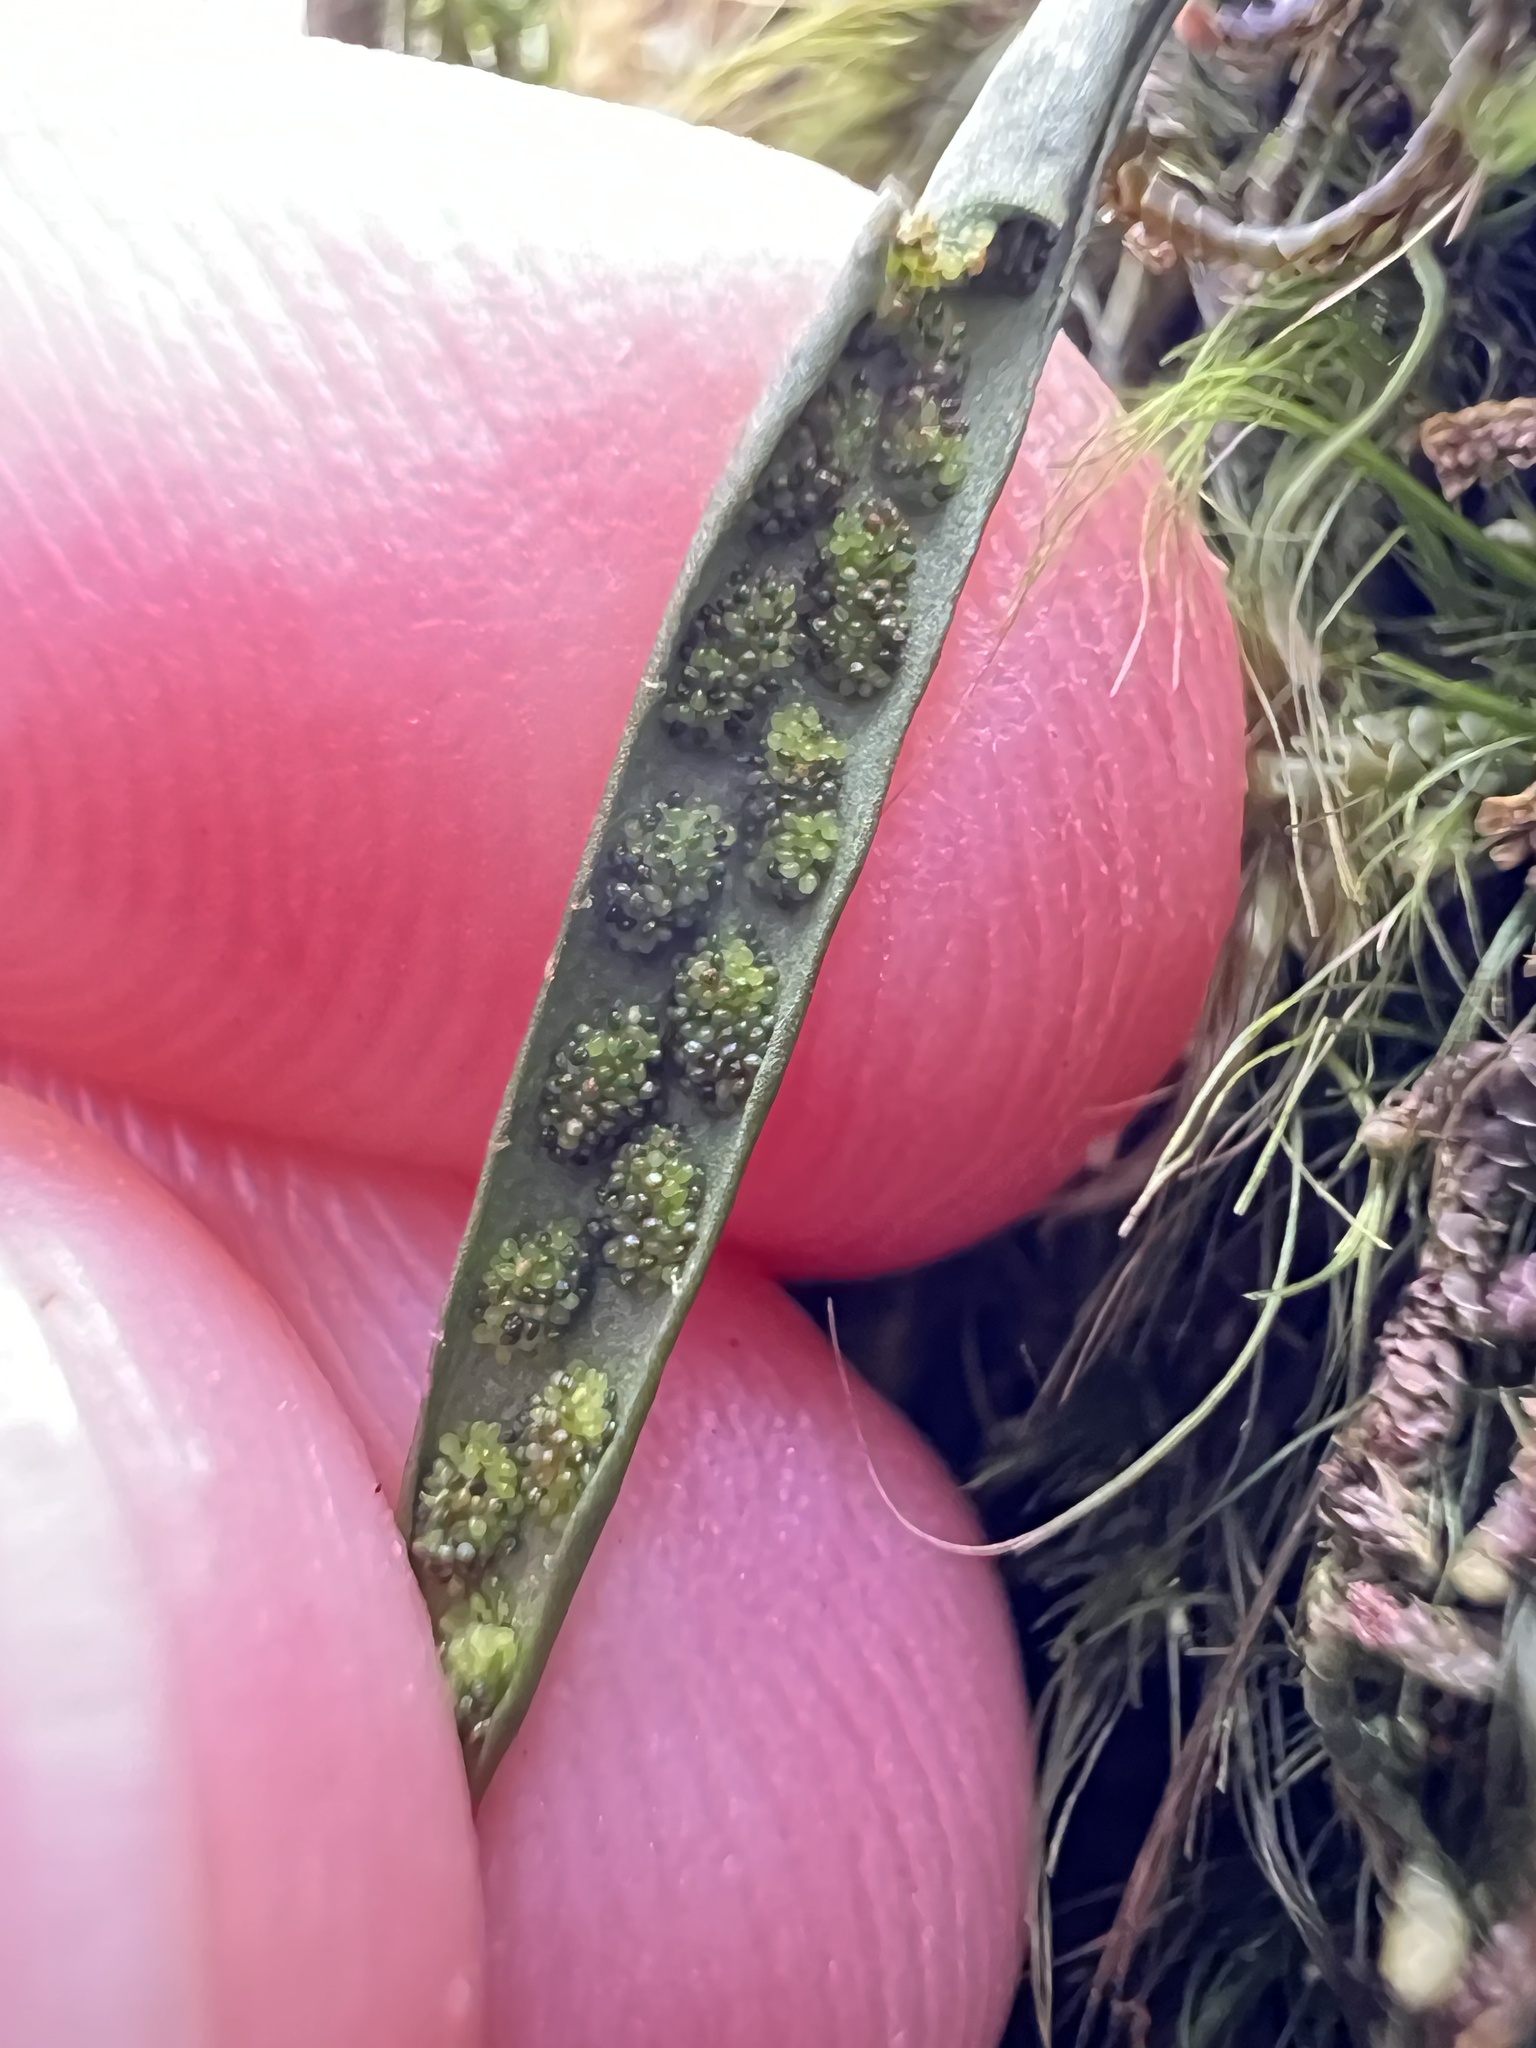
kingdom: Plantae
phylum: Tracheophyta
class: Polypodiopsida
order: Polypodiales
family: Polypodiaceae
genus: Notogrammitis
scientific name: Notogrammitis angustifolia
